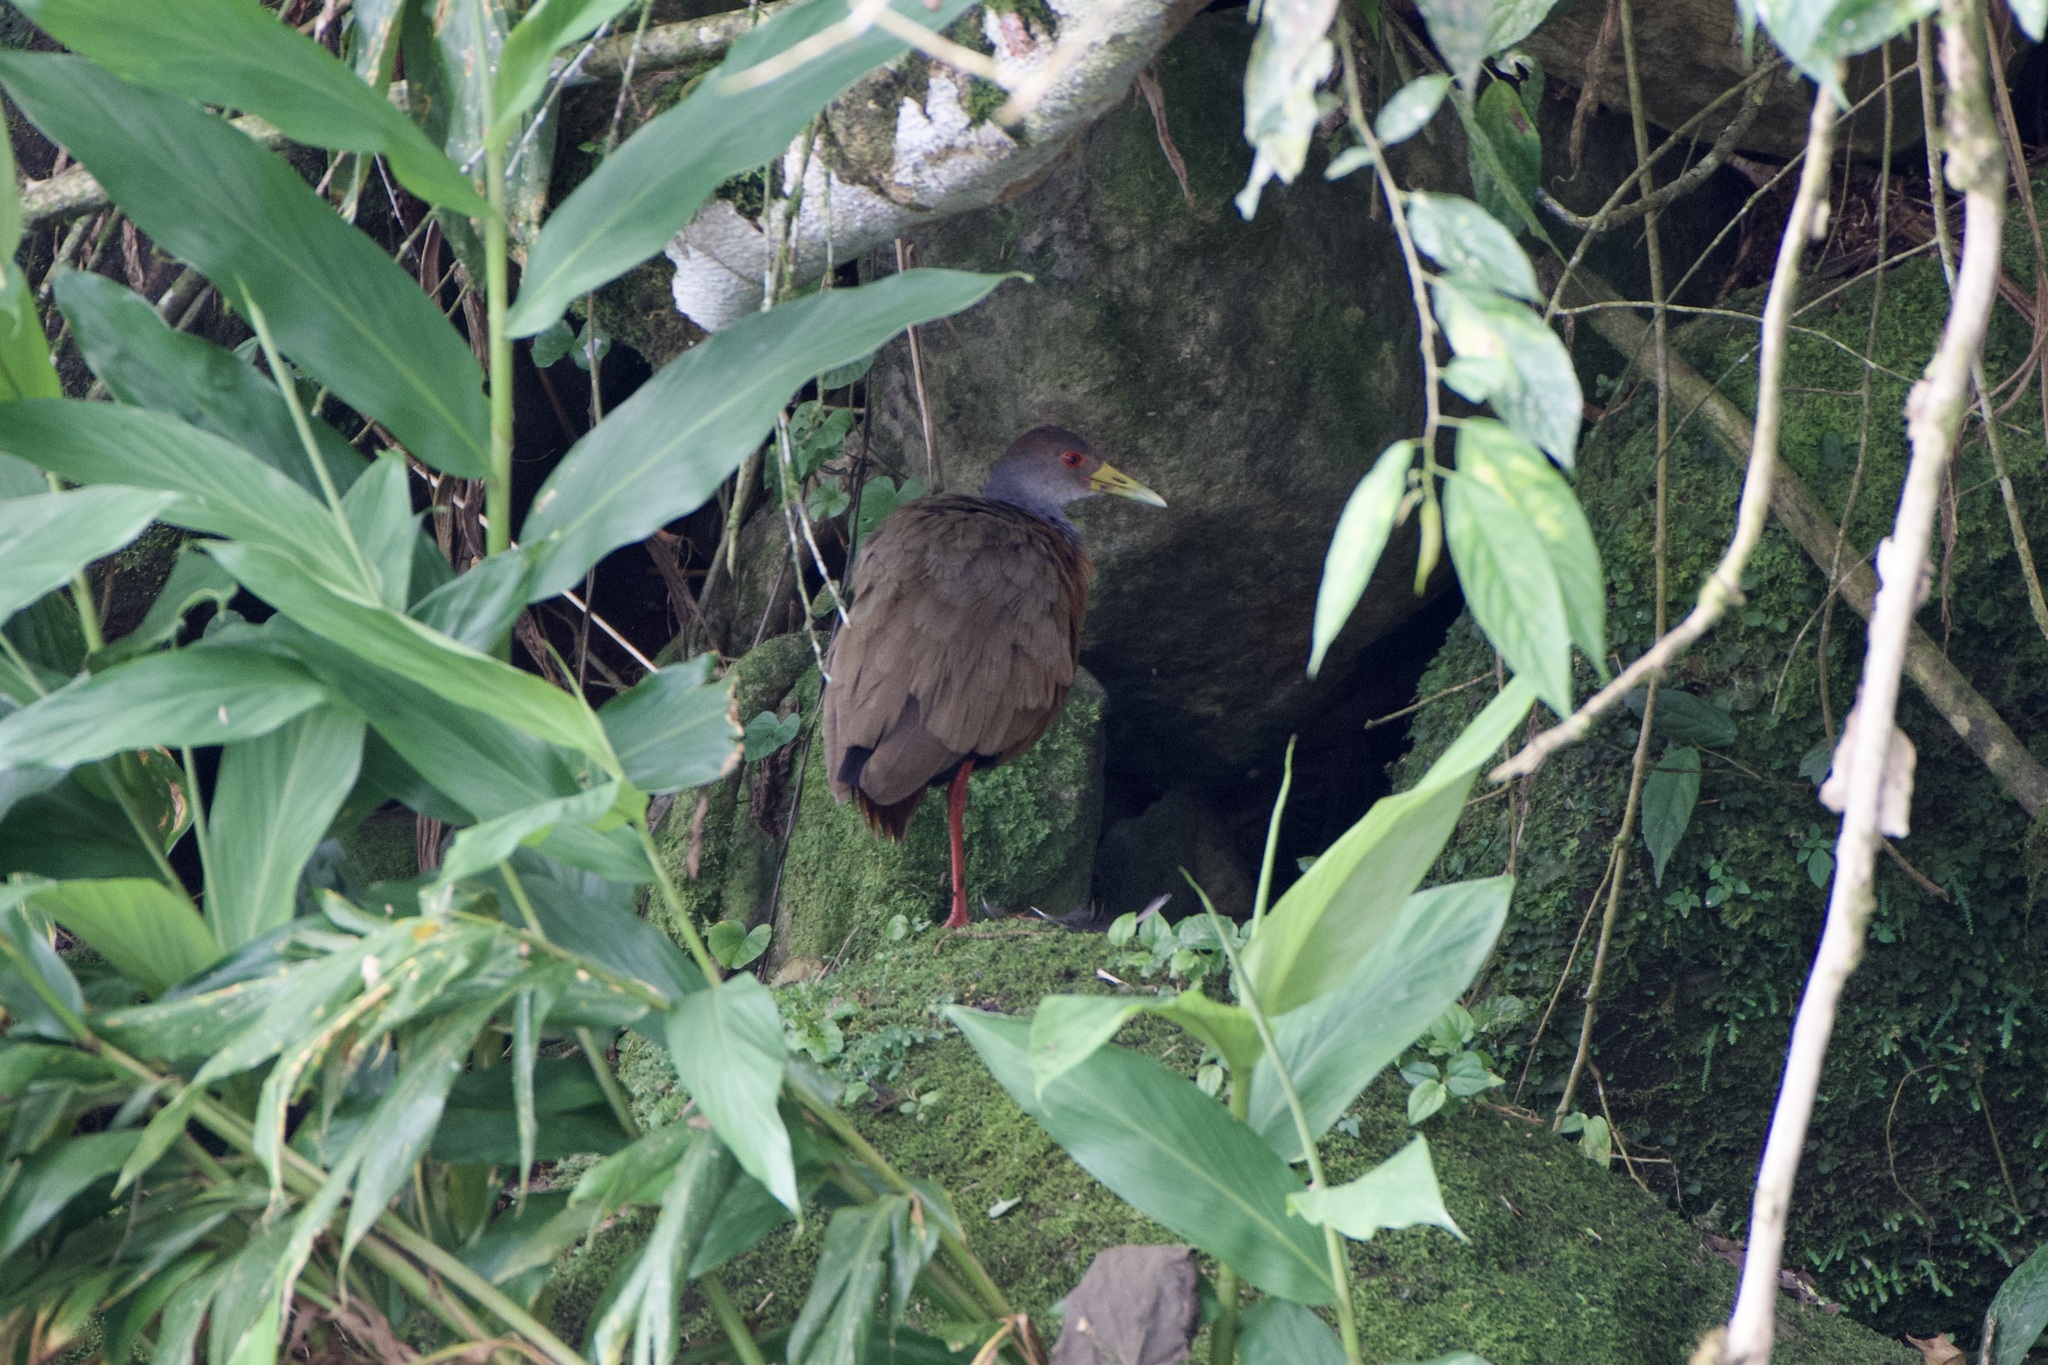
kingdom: Animalia
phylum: Chordata
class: Aves
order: Gruiformes
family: Rallidae
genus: Aramides
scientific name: Aramides cajanea
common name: Gray-necked wood-rail
